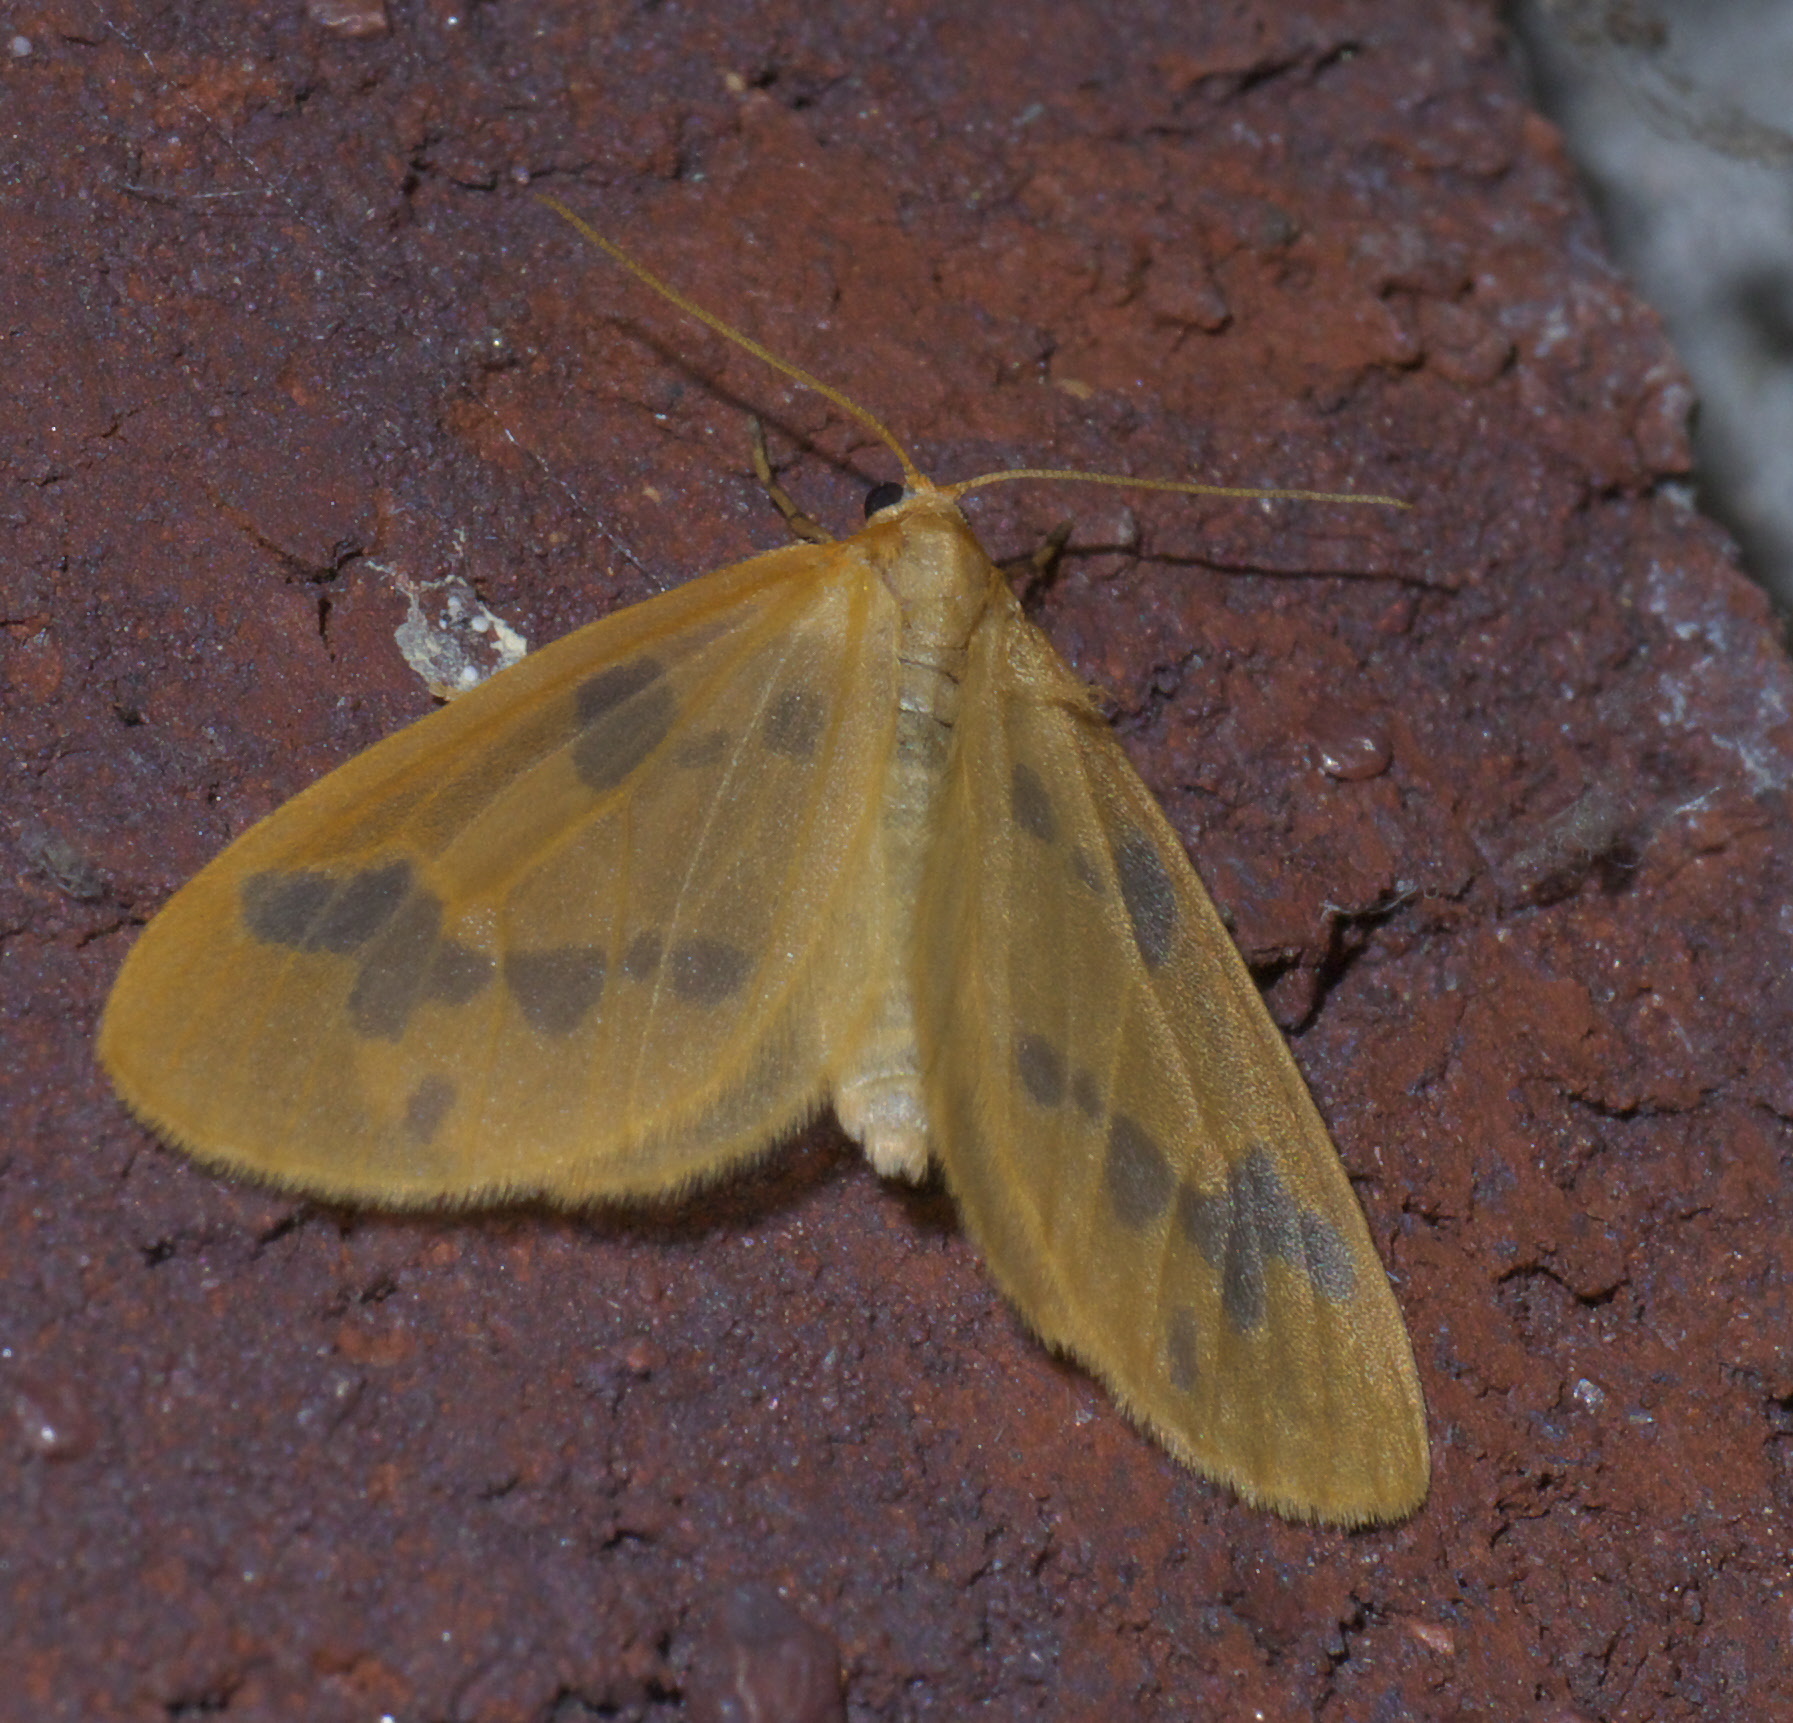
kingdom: Animalia
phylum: Arthropoda
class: Insecta
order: Lepidoptera
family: Geometridae
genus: Eubaphe
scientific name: Eubaphe mendica
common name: Beggar
